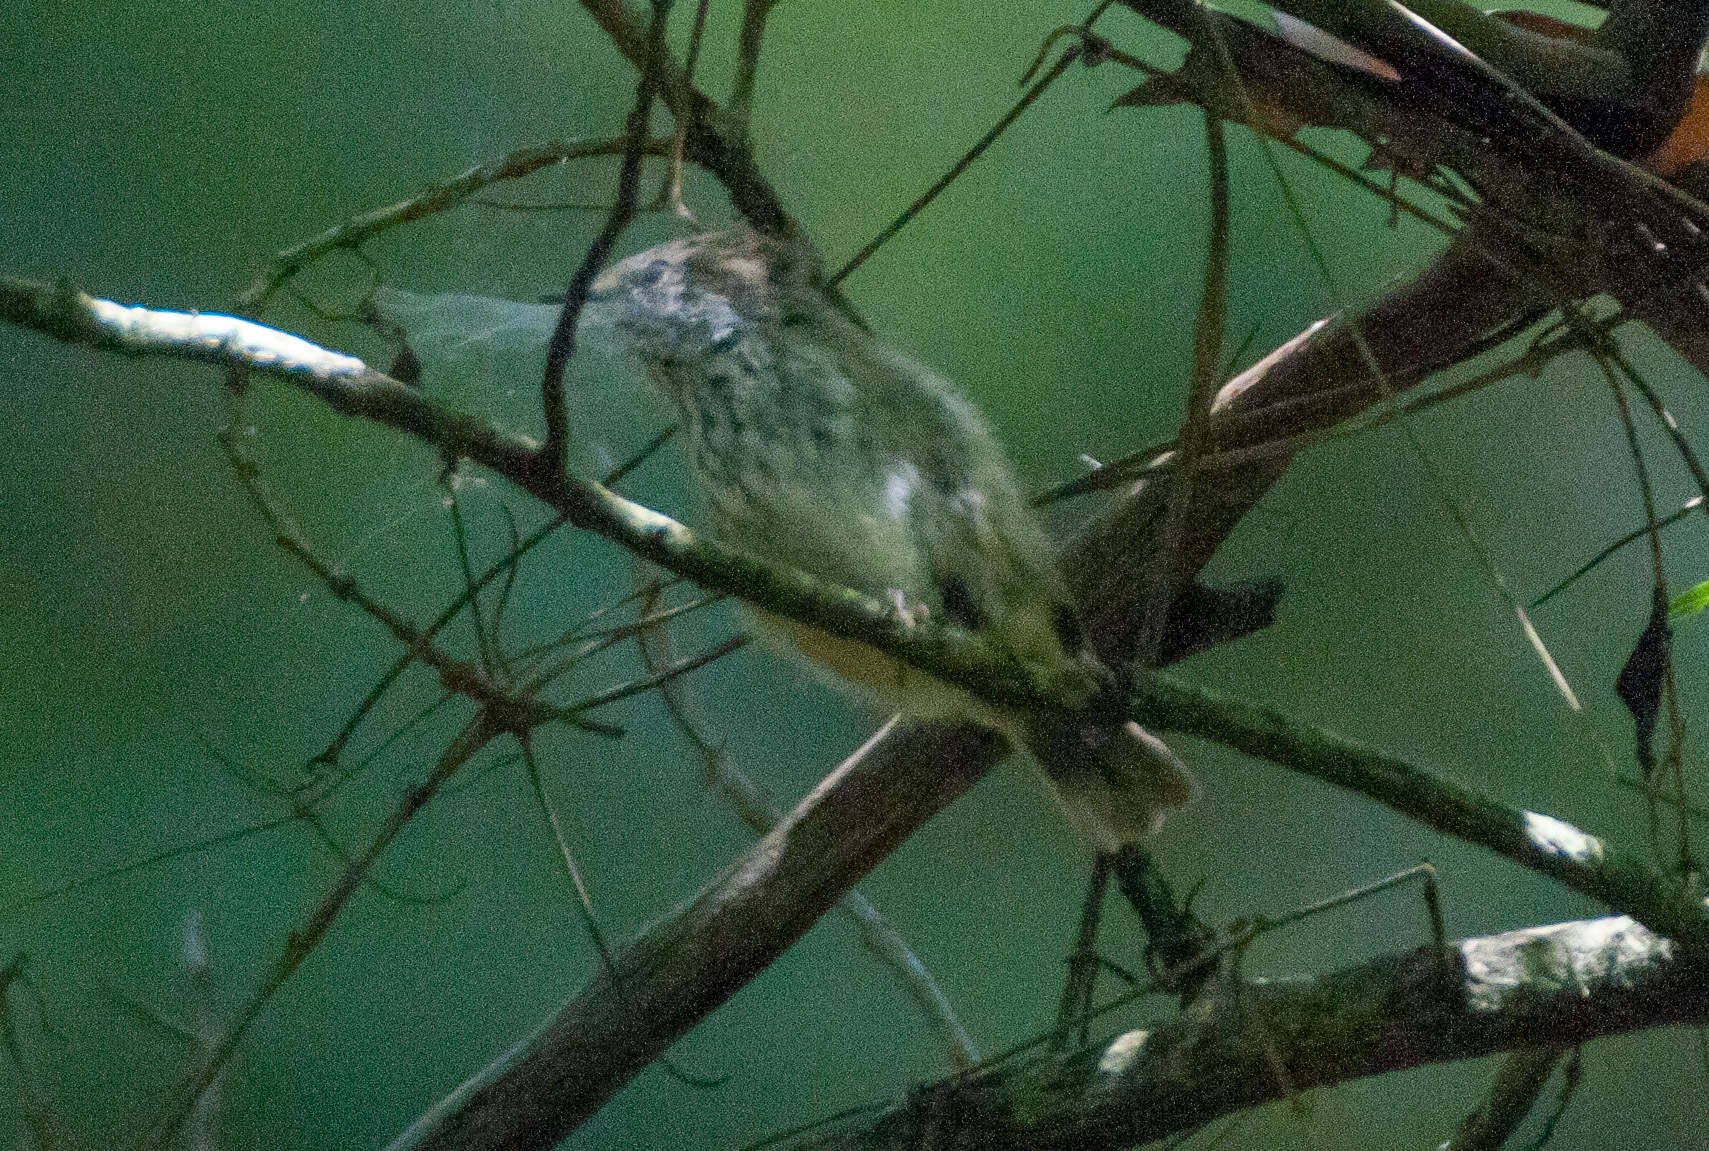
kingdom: Animalia
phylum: Chordata
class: Aves
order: Passeriformes
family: Acanthizidae
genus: Acanthiza
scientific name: Acanthiza pusilla
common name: Brown thornbill
